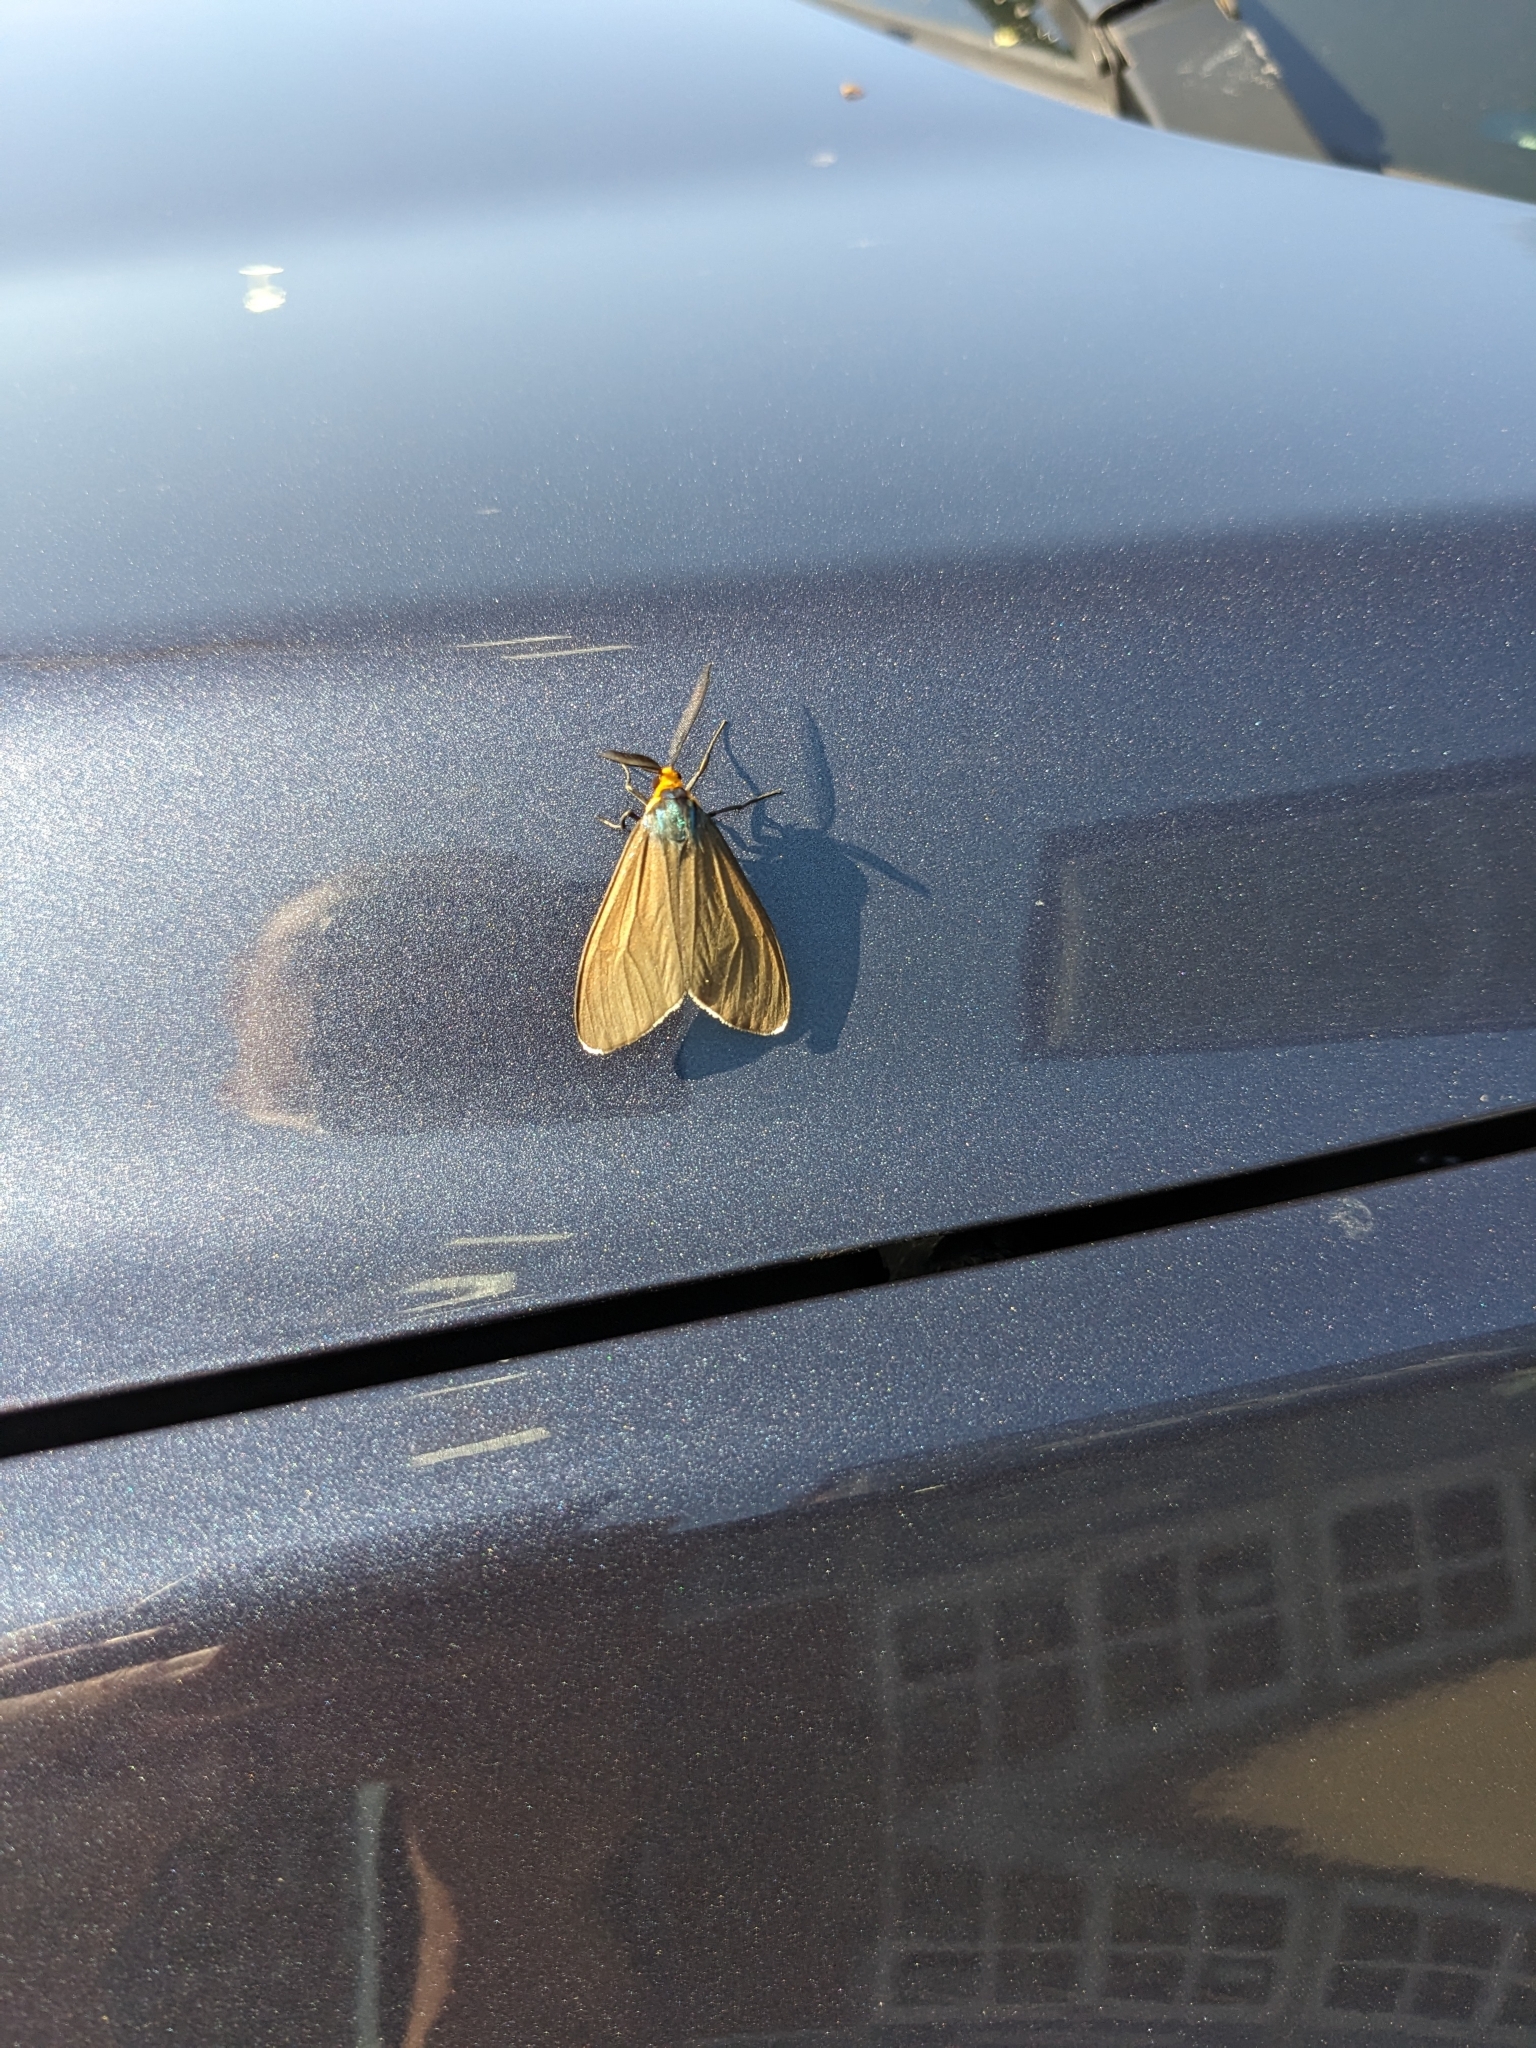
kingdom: Animalia
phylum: Arthropoda
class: Insecta
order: Lepidoptera
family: Erebidae
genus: Ctenucha
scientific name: Ctenucha virginica
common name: Virginia ctenucha moth
